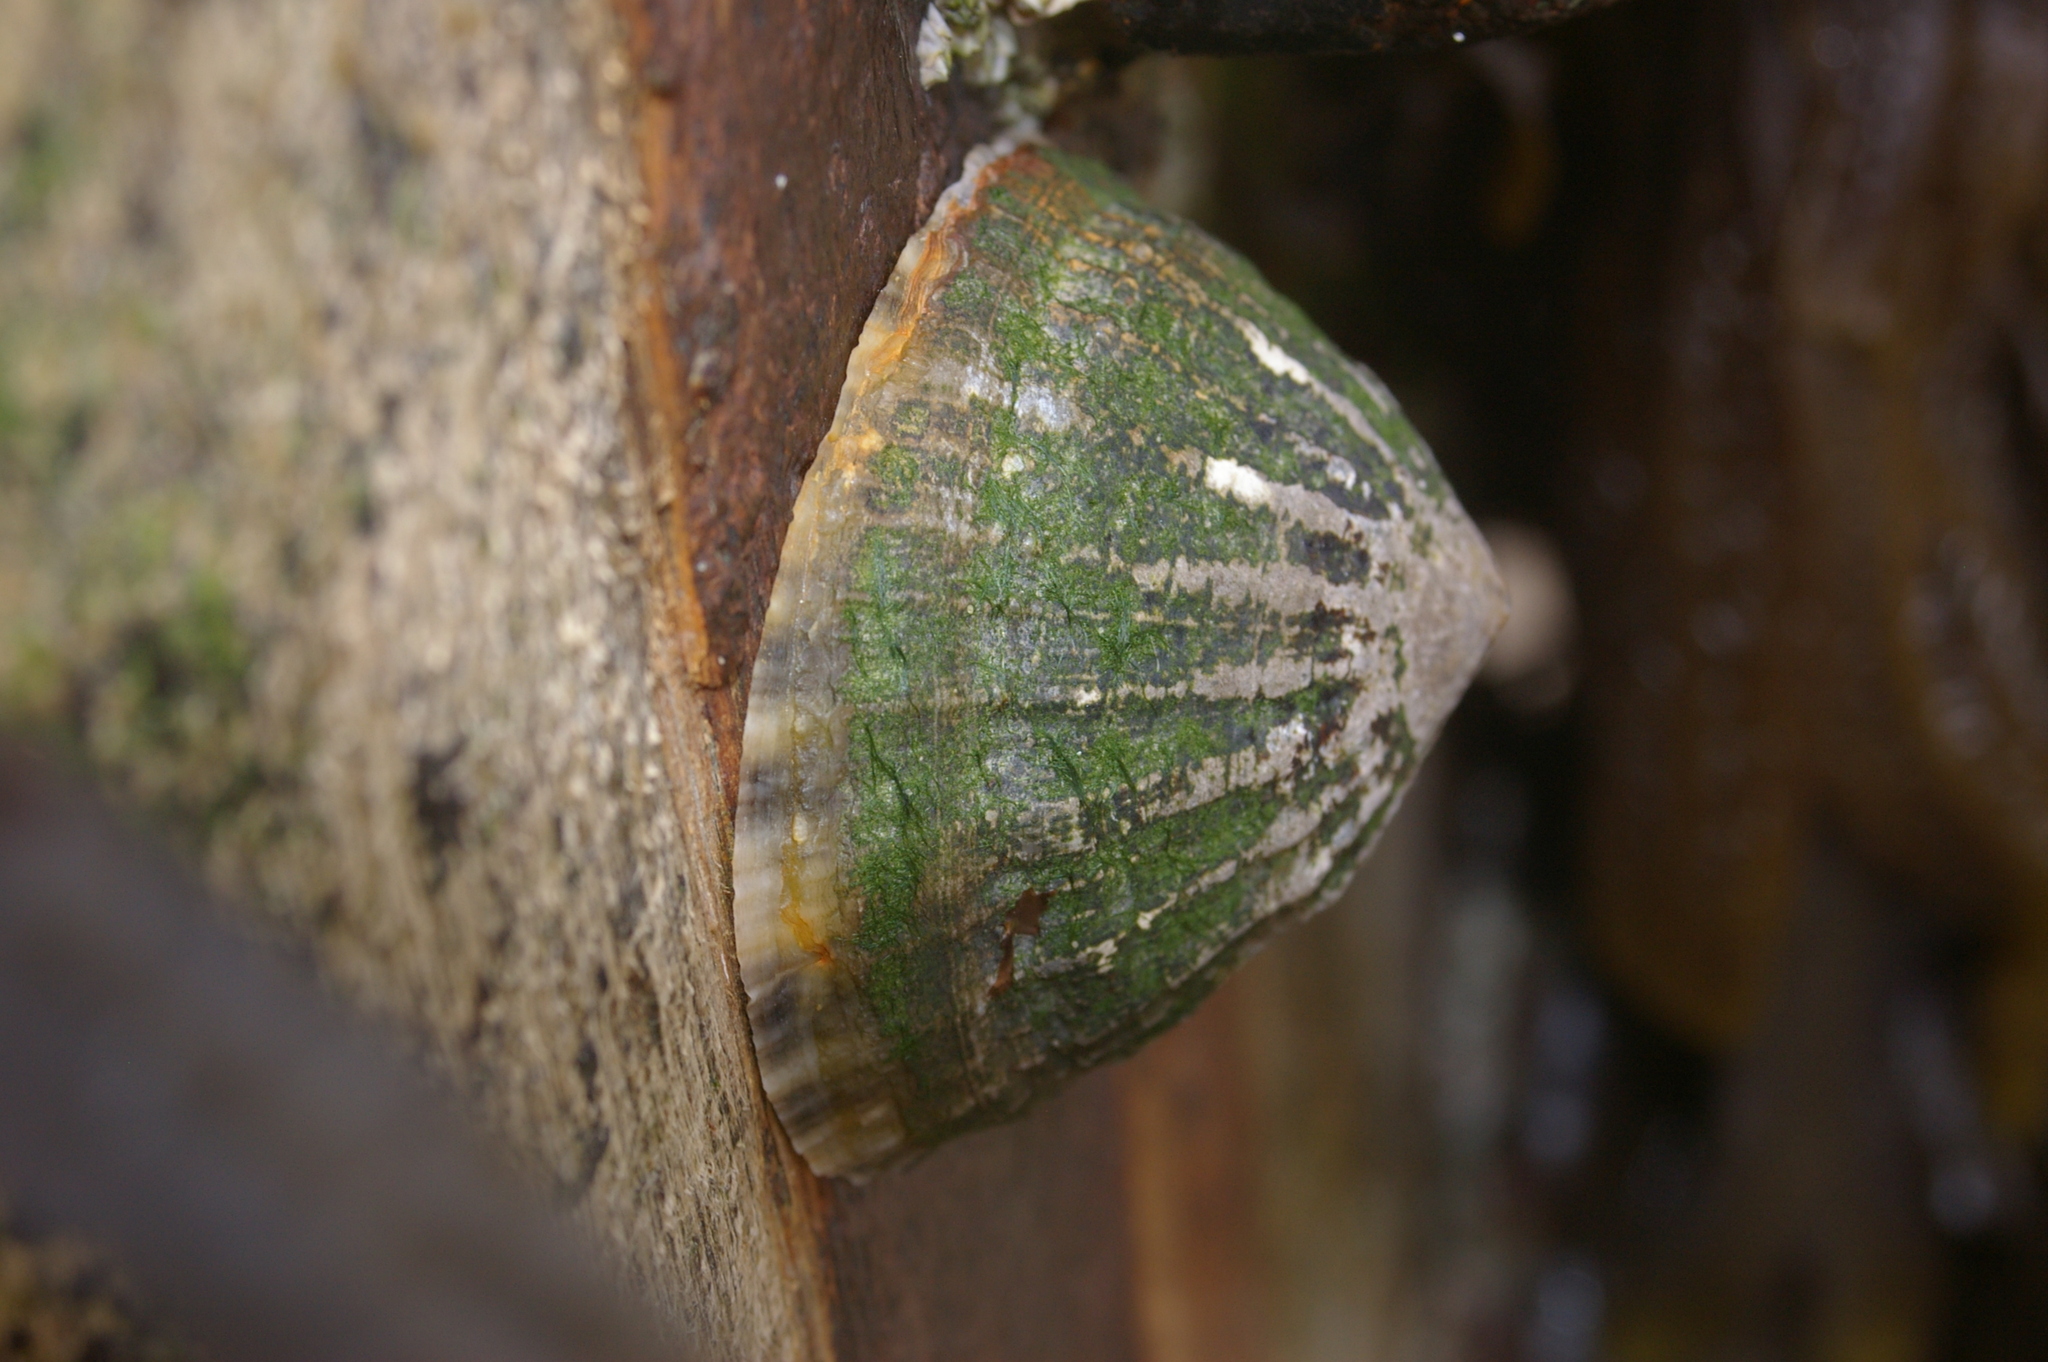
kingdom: Animalia
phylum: Mollusca
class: Gastropoda
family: Patellidae
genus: Patella
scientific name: Patella vulgata
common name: Common limpet
